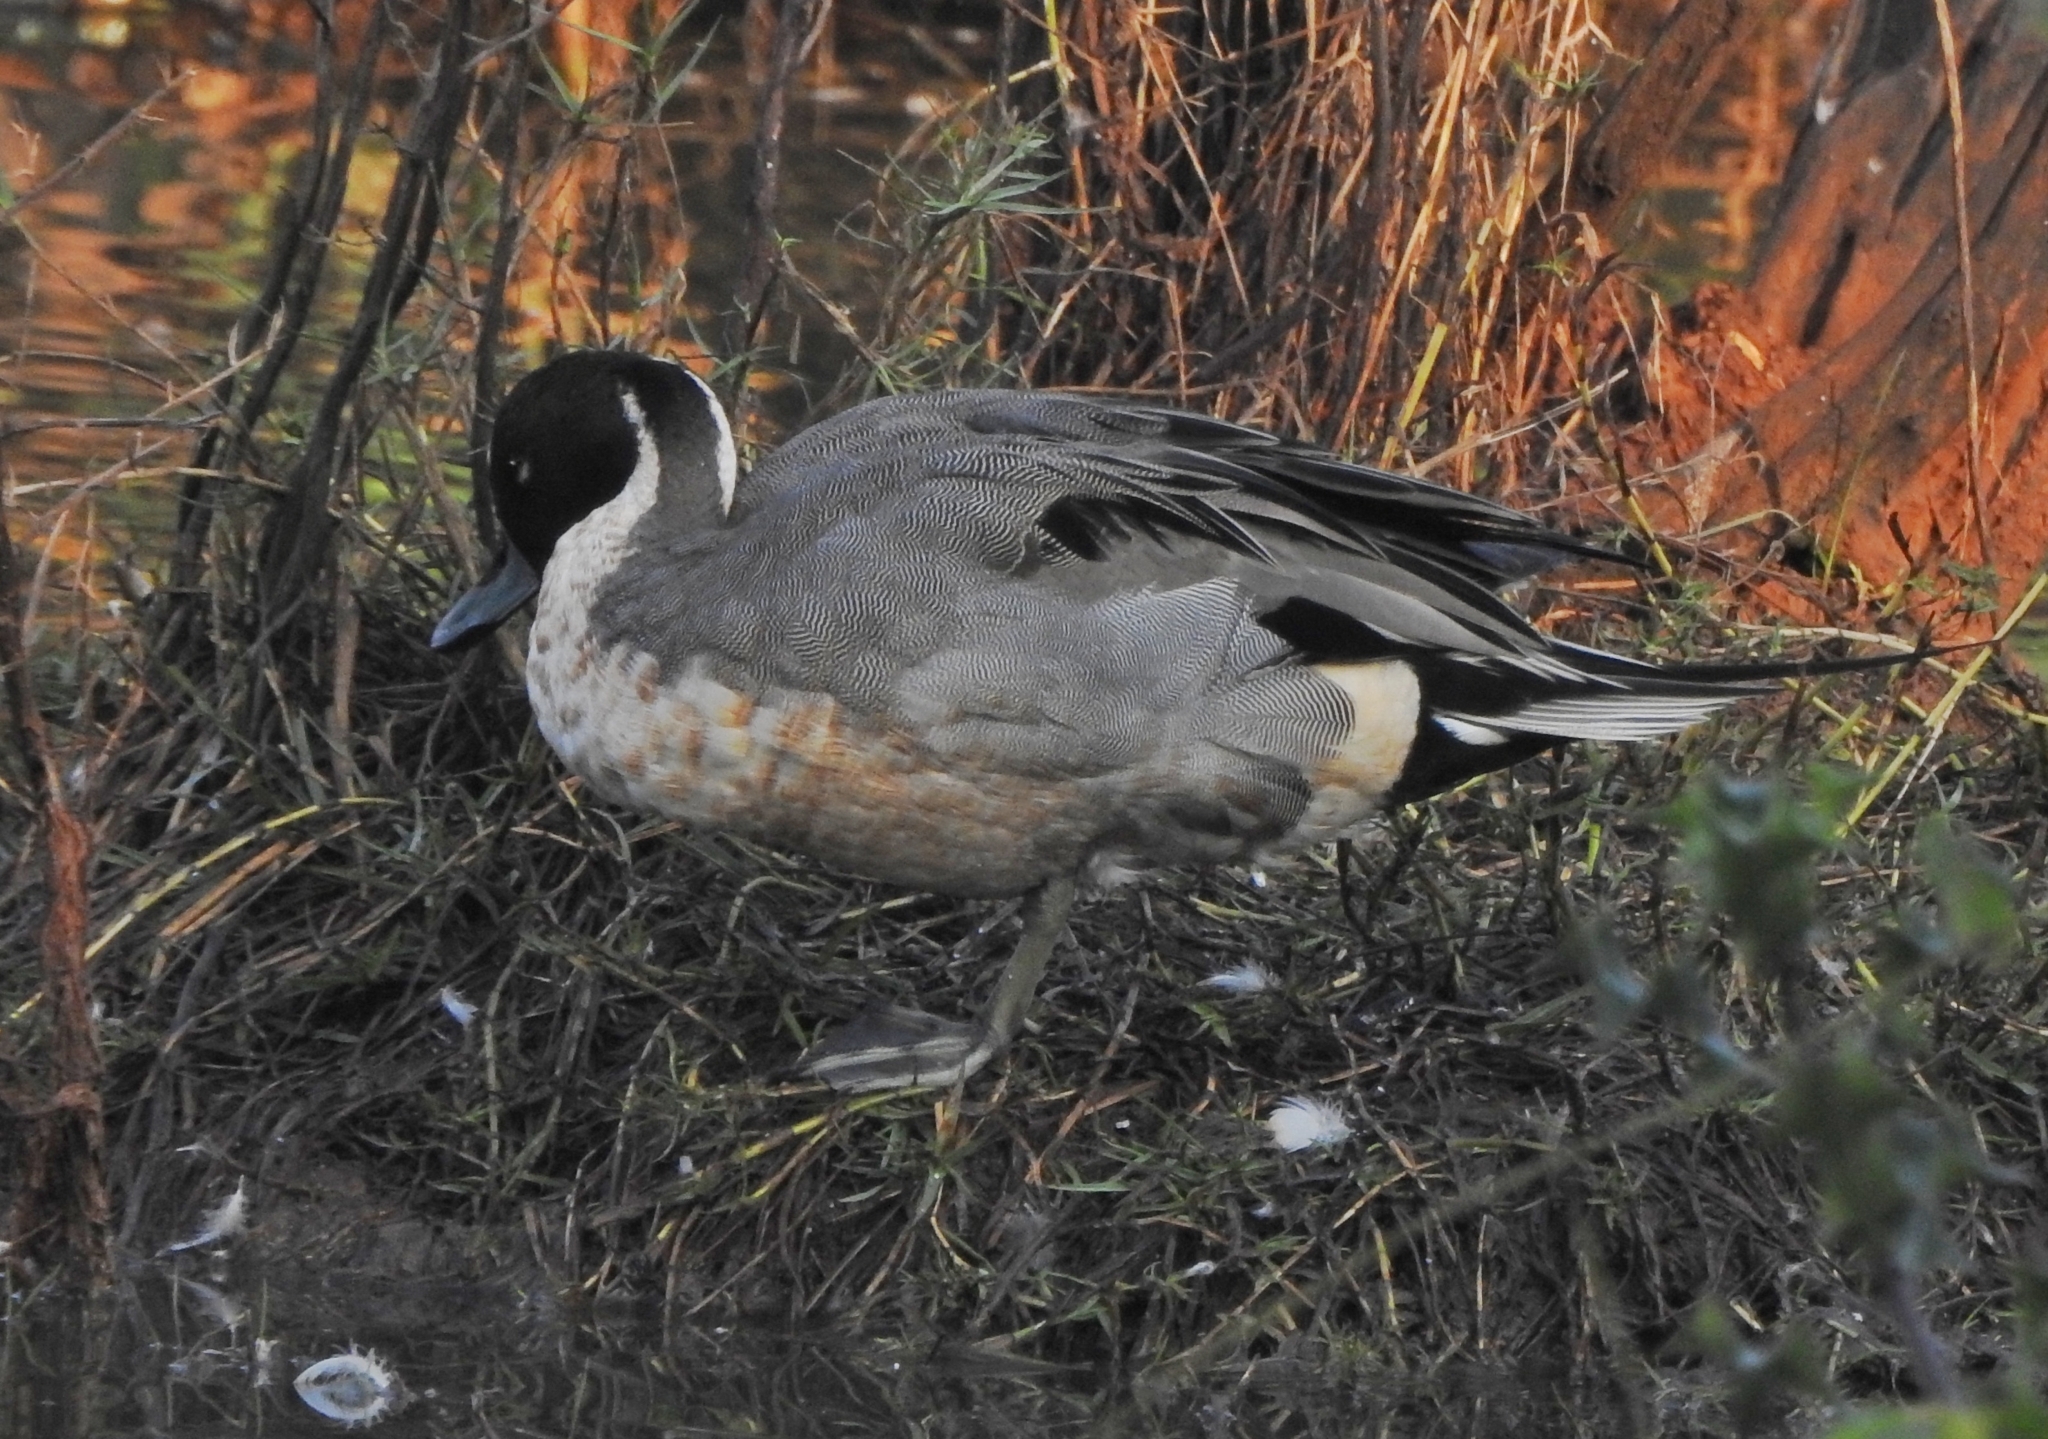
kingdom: Animalia
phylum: Chordata
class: Aves
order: Anseriformes
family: Anatidae
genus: Anas
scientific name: Anas acuta
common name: Northern pintail
